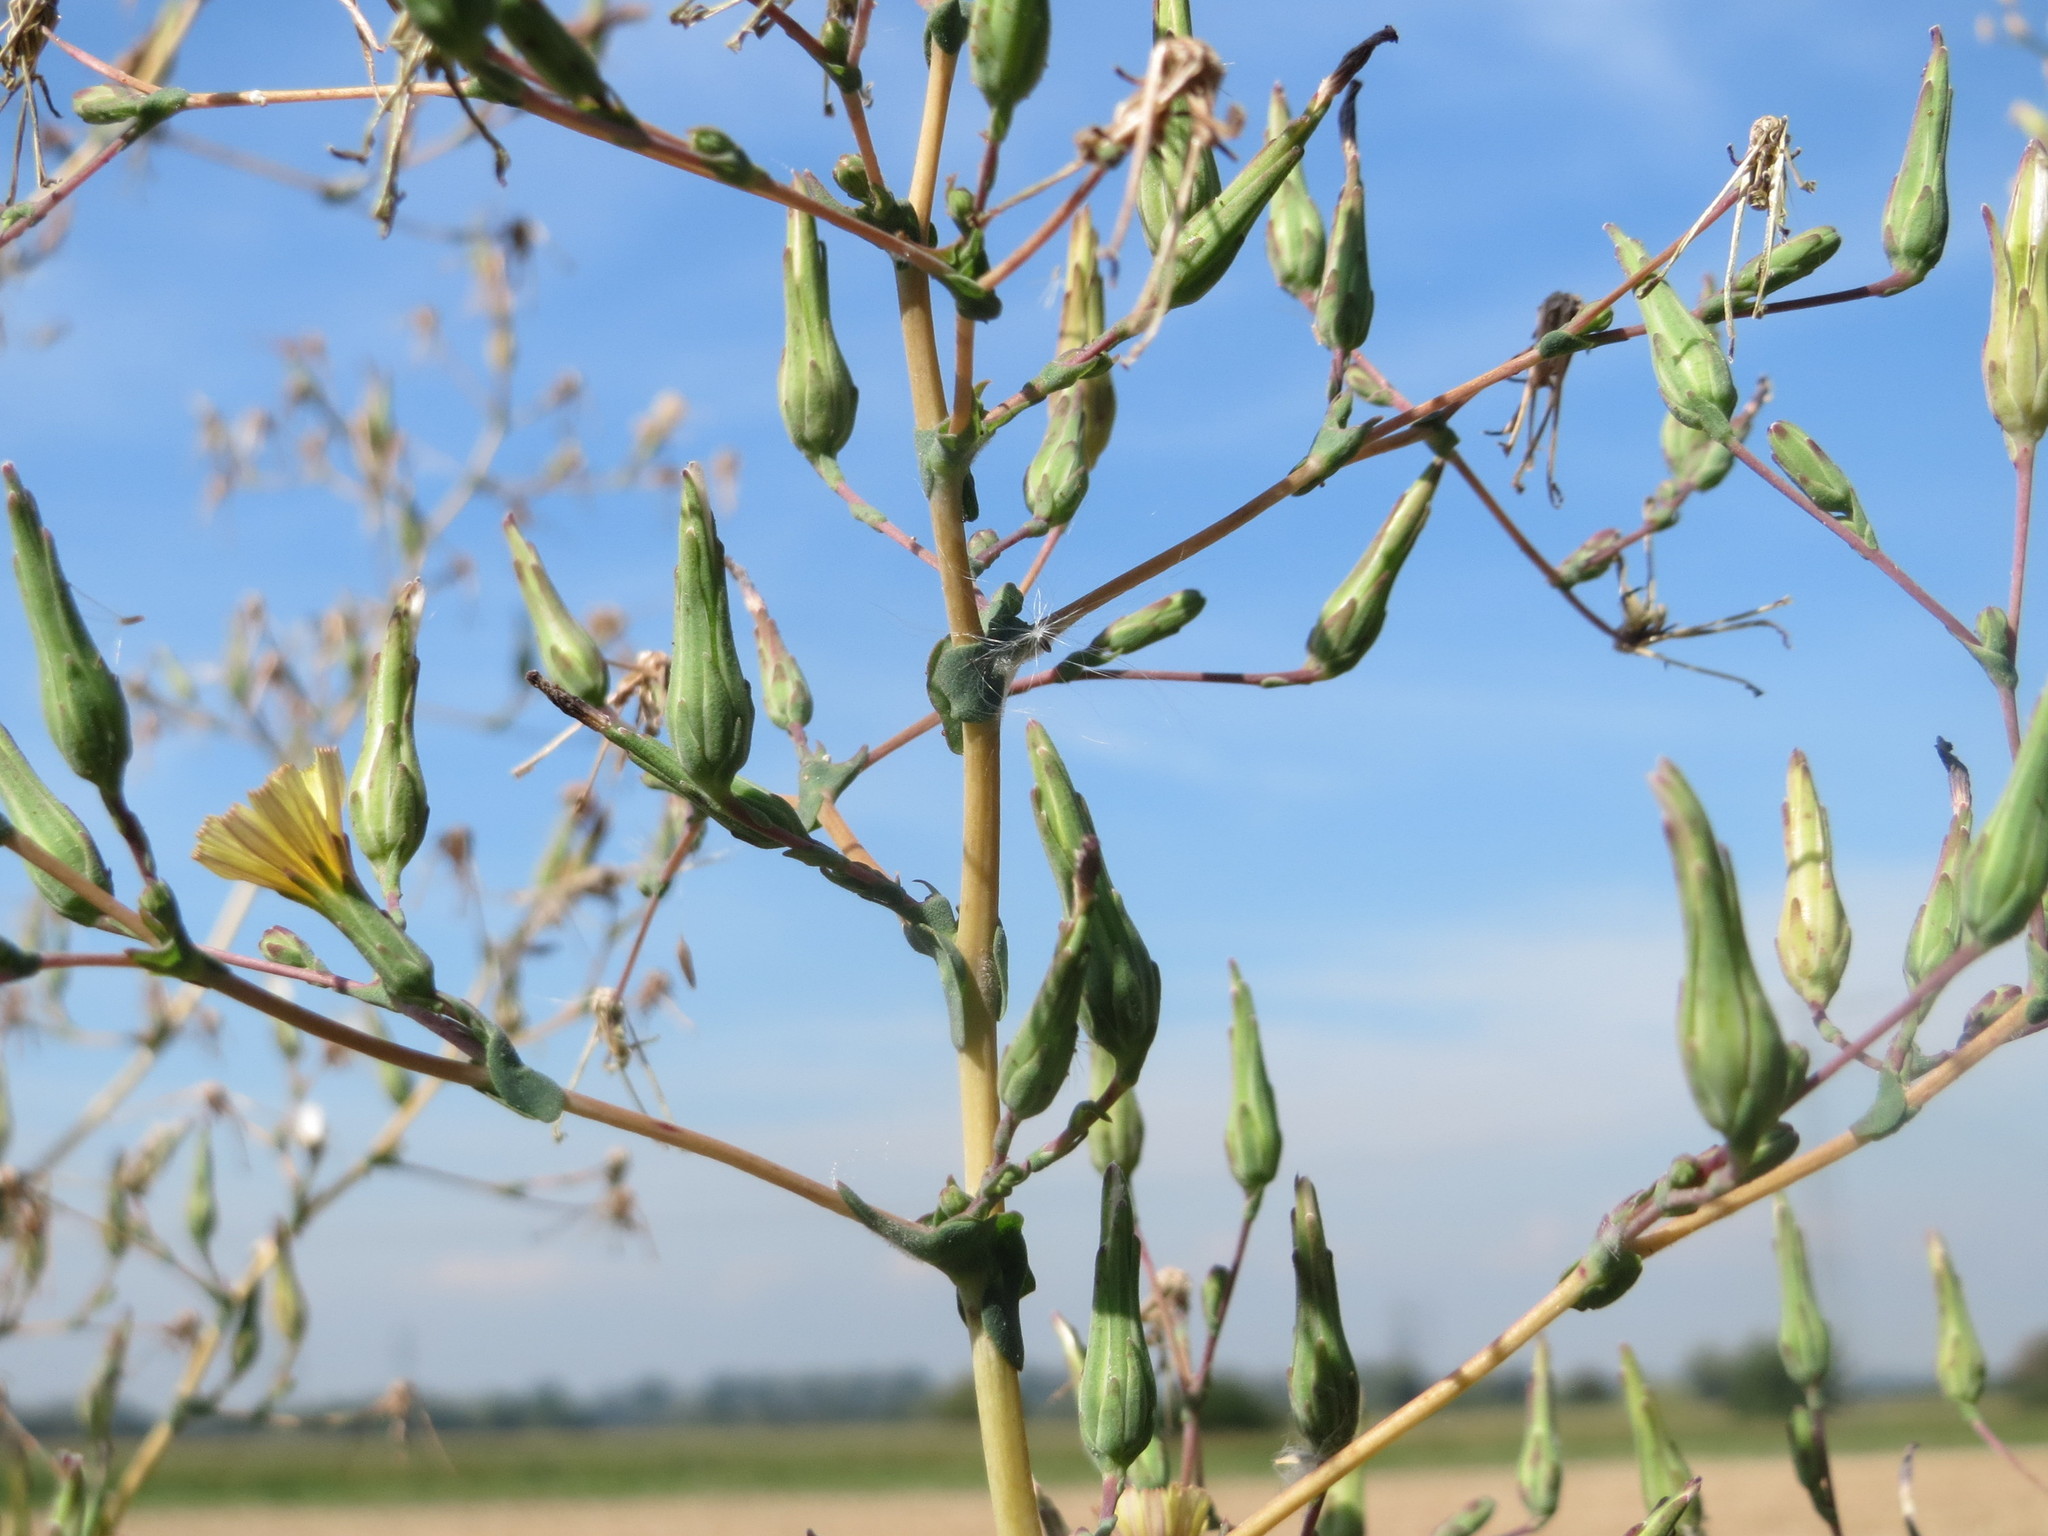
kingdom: Plantae
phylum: Tracheophyta
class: Magnoliopsida
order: Asterales
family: Asteraceae
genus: Lactuca
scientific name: Lactuca serriola
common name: Prickly lettuce
